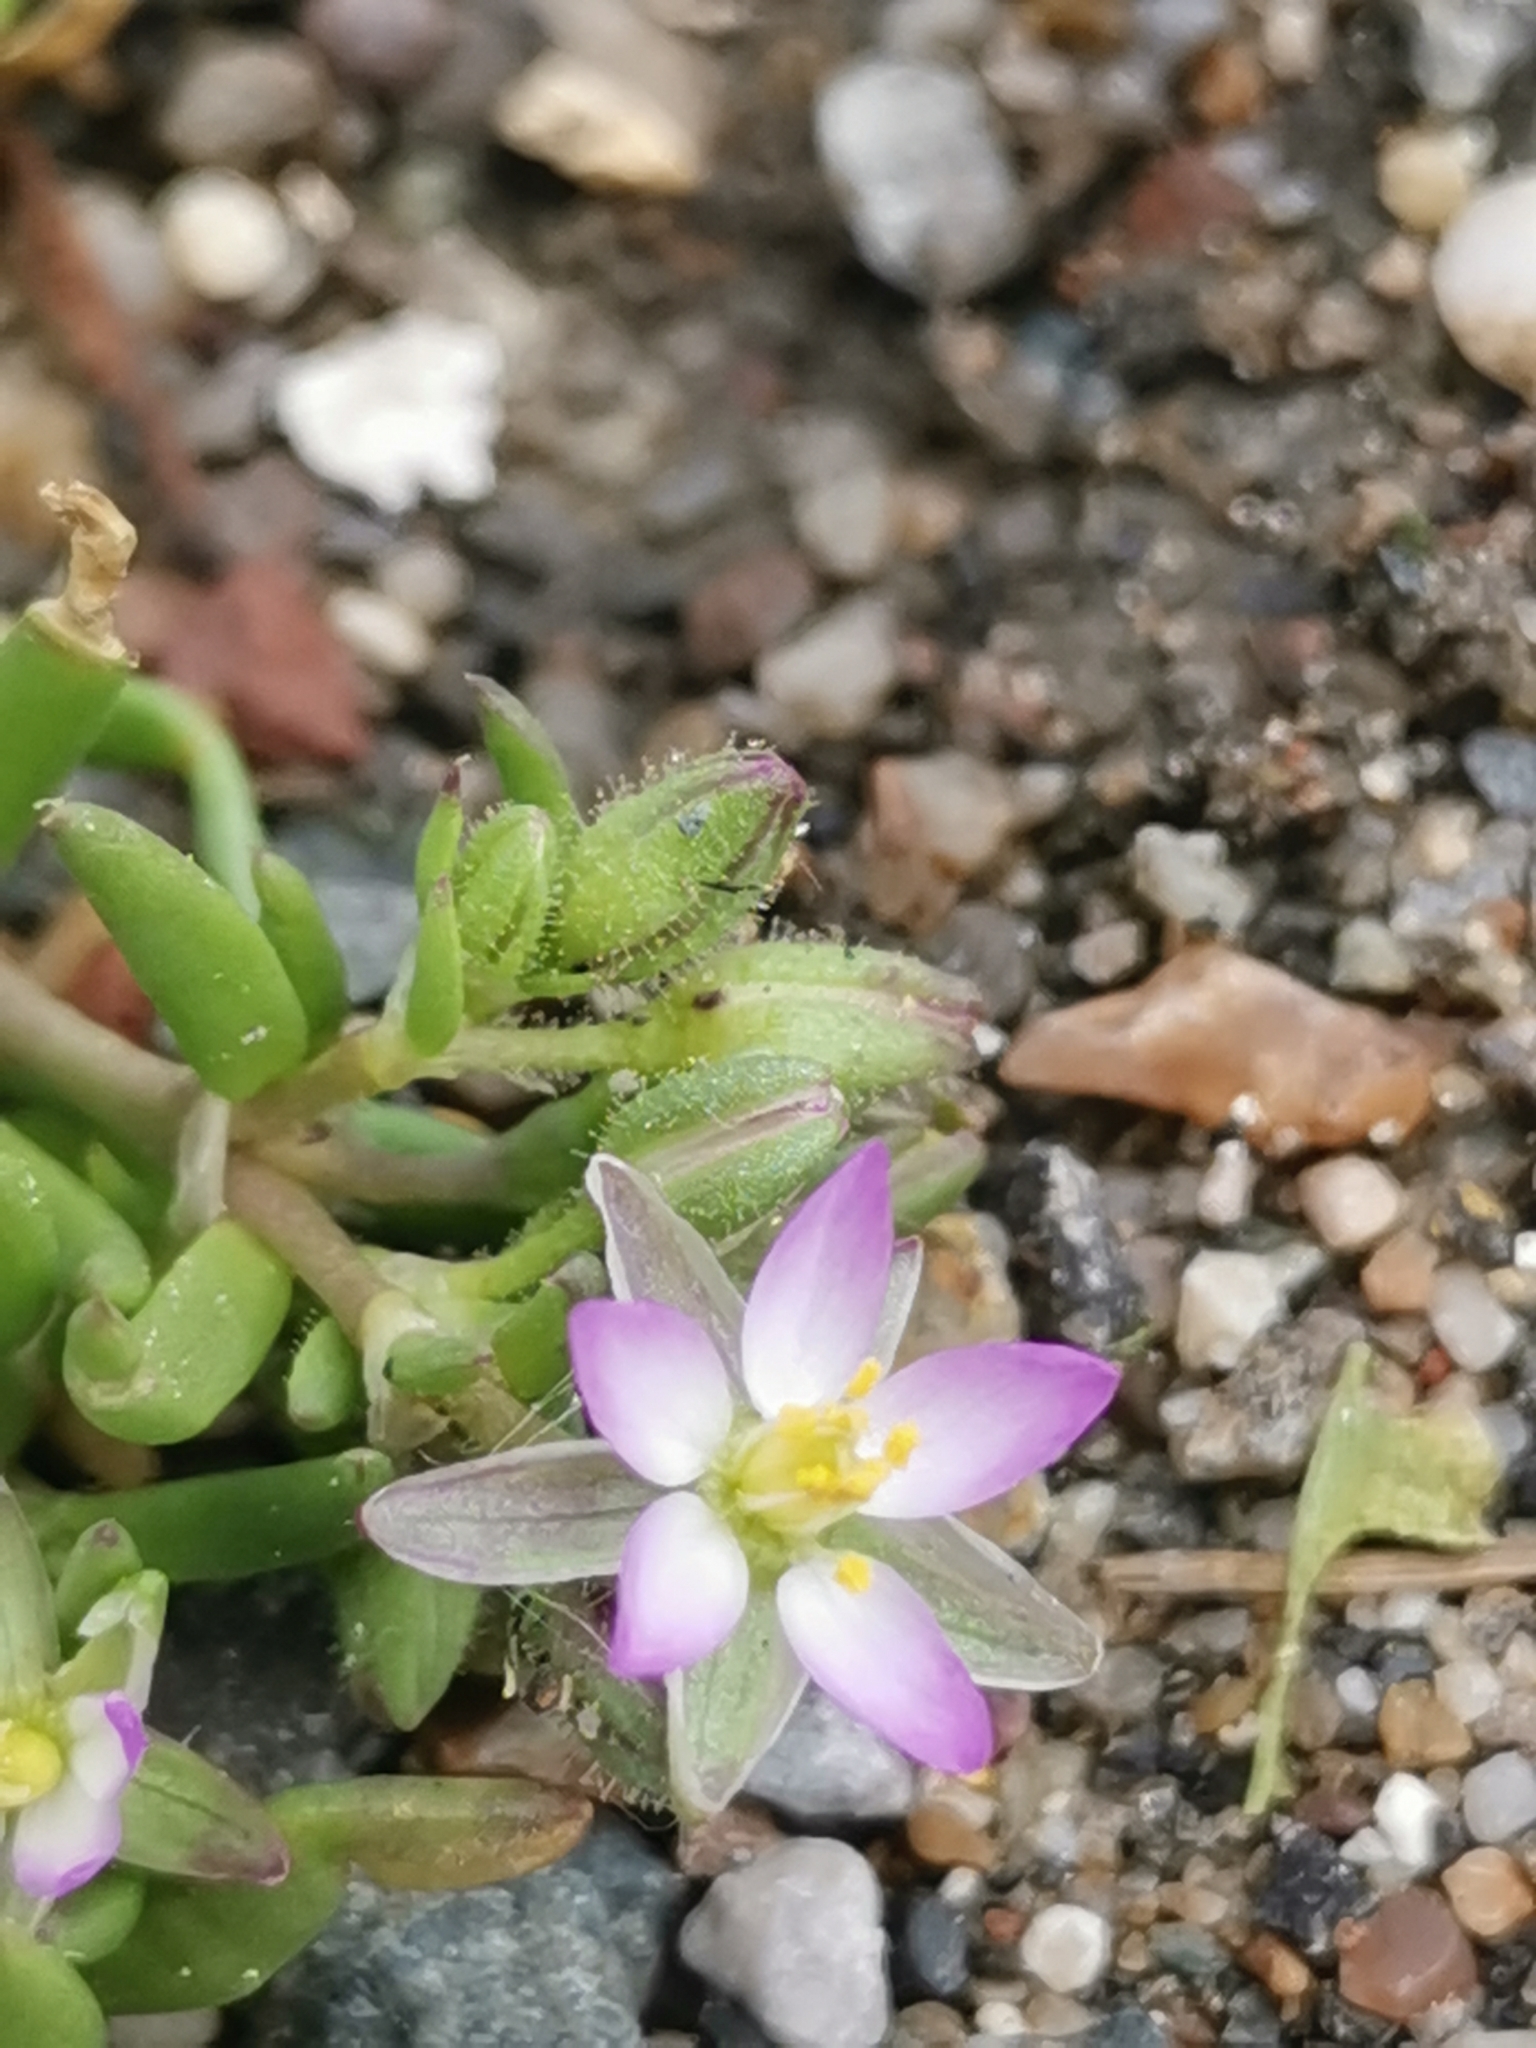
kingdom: Plantae
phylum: Tracheophyta
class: Magnoliopsida
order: Caryophyllales
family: Caryophyllaceae
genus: Spergularia
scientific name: Spergularia marina
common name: Lesser sea-spurrey
